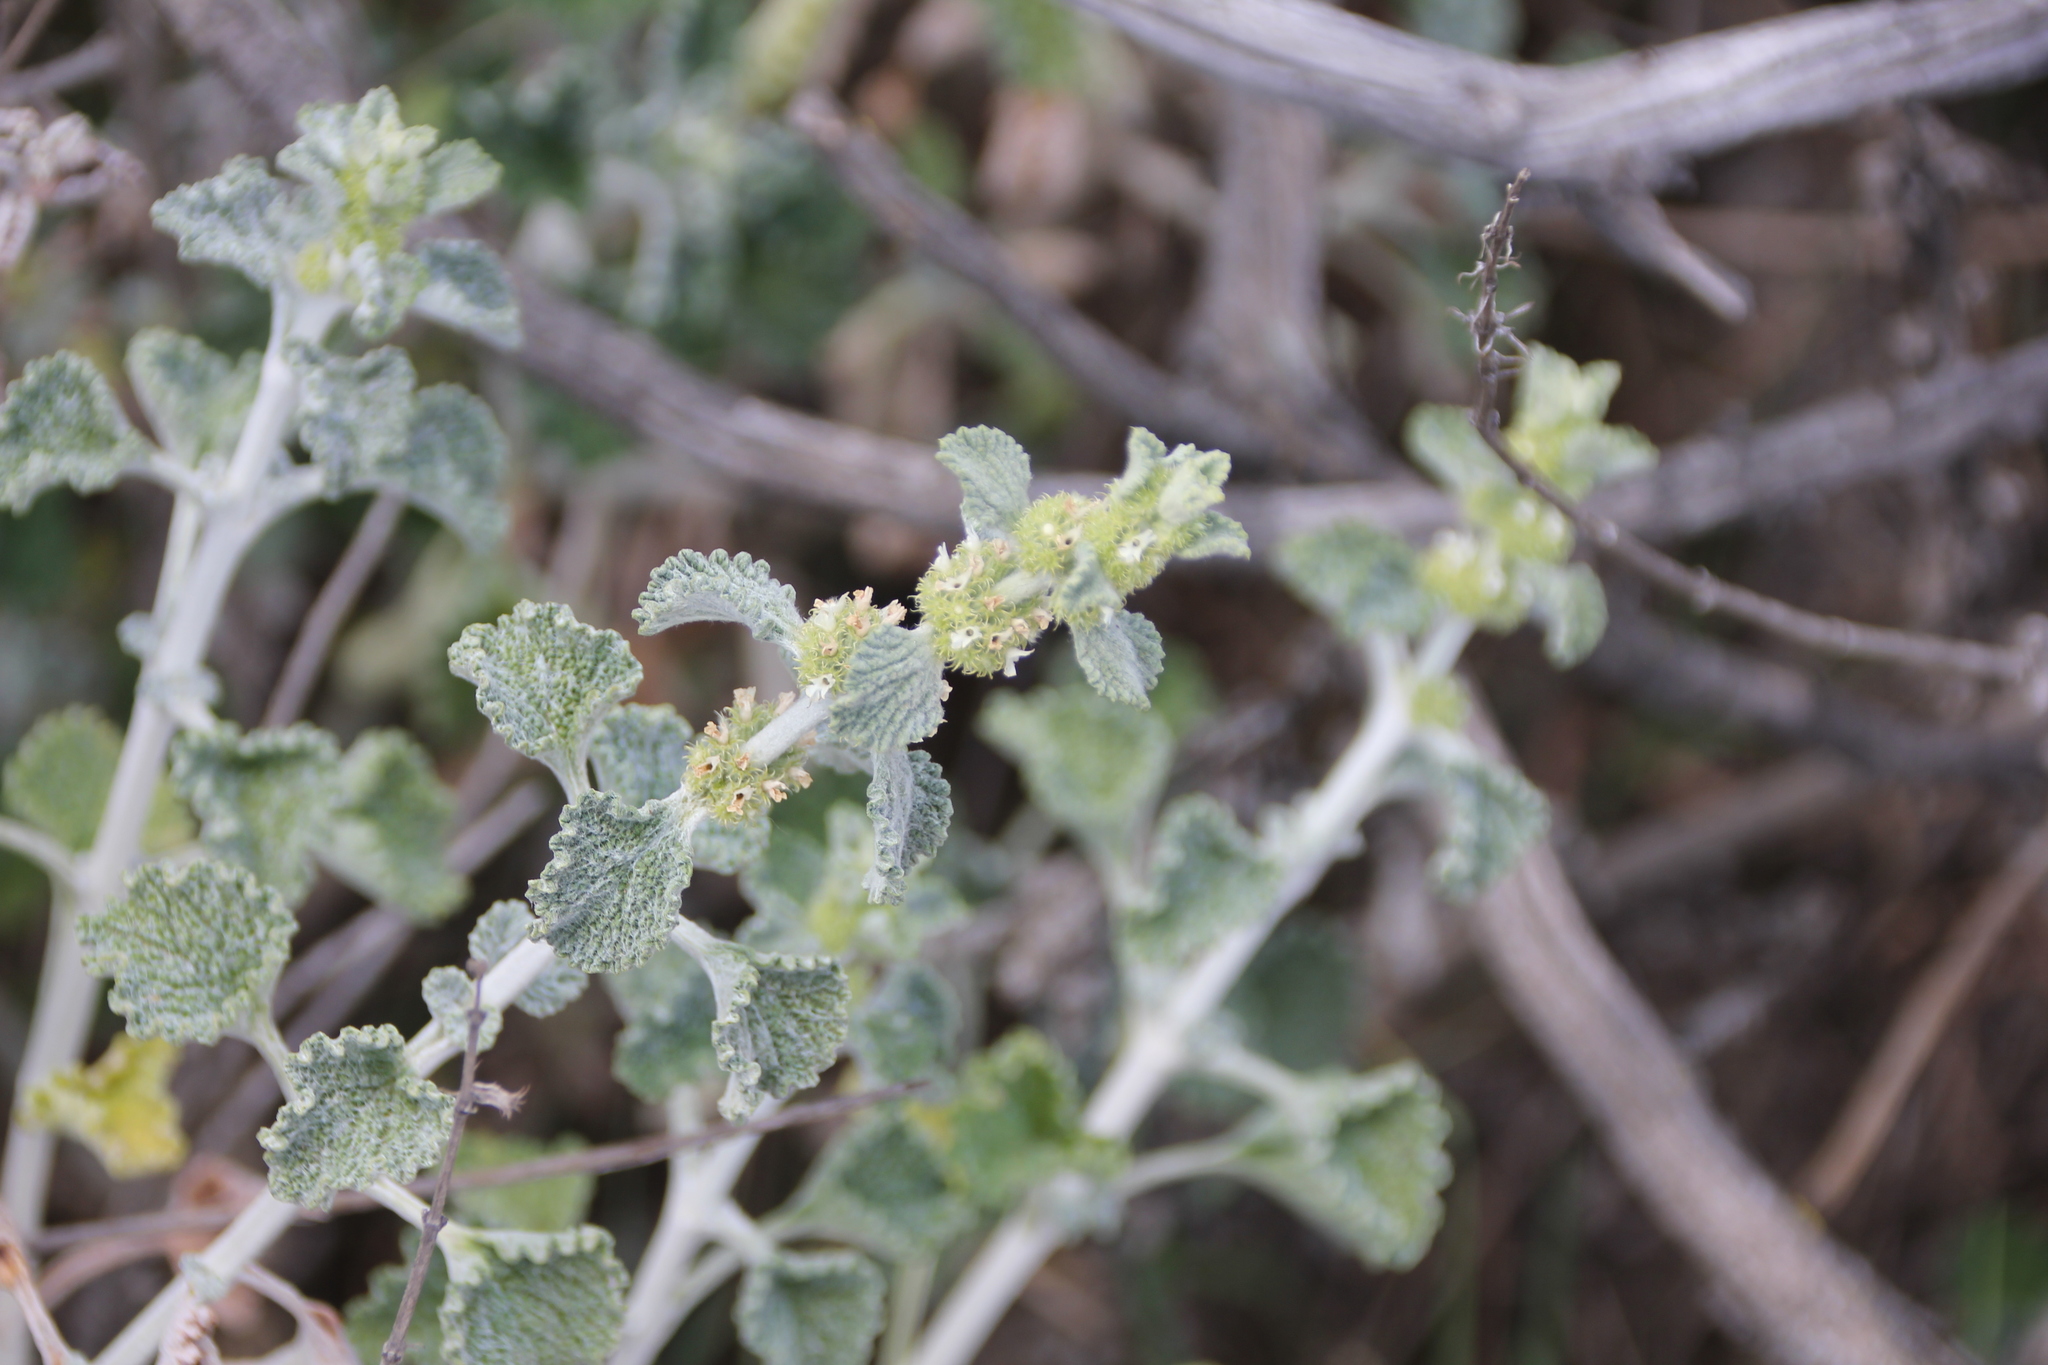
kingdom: Plantae
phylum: Tracheophyta
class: Magnoliopsida
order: Lamiales
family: Lamiaceae
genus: Marrubium
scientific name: Marrubium vulgare
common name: Horehound
